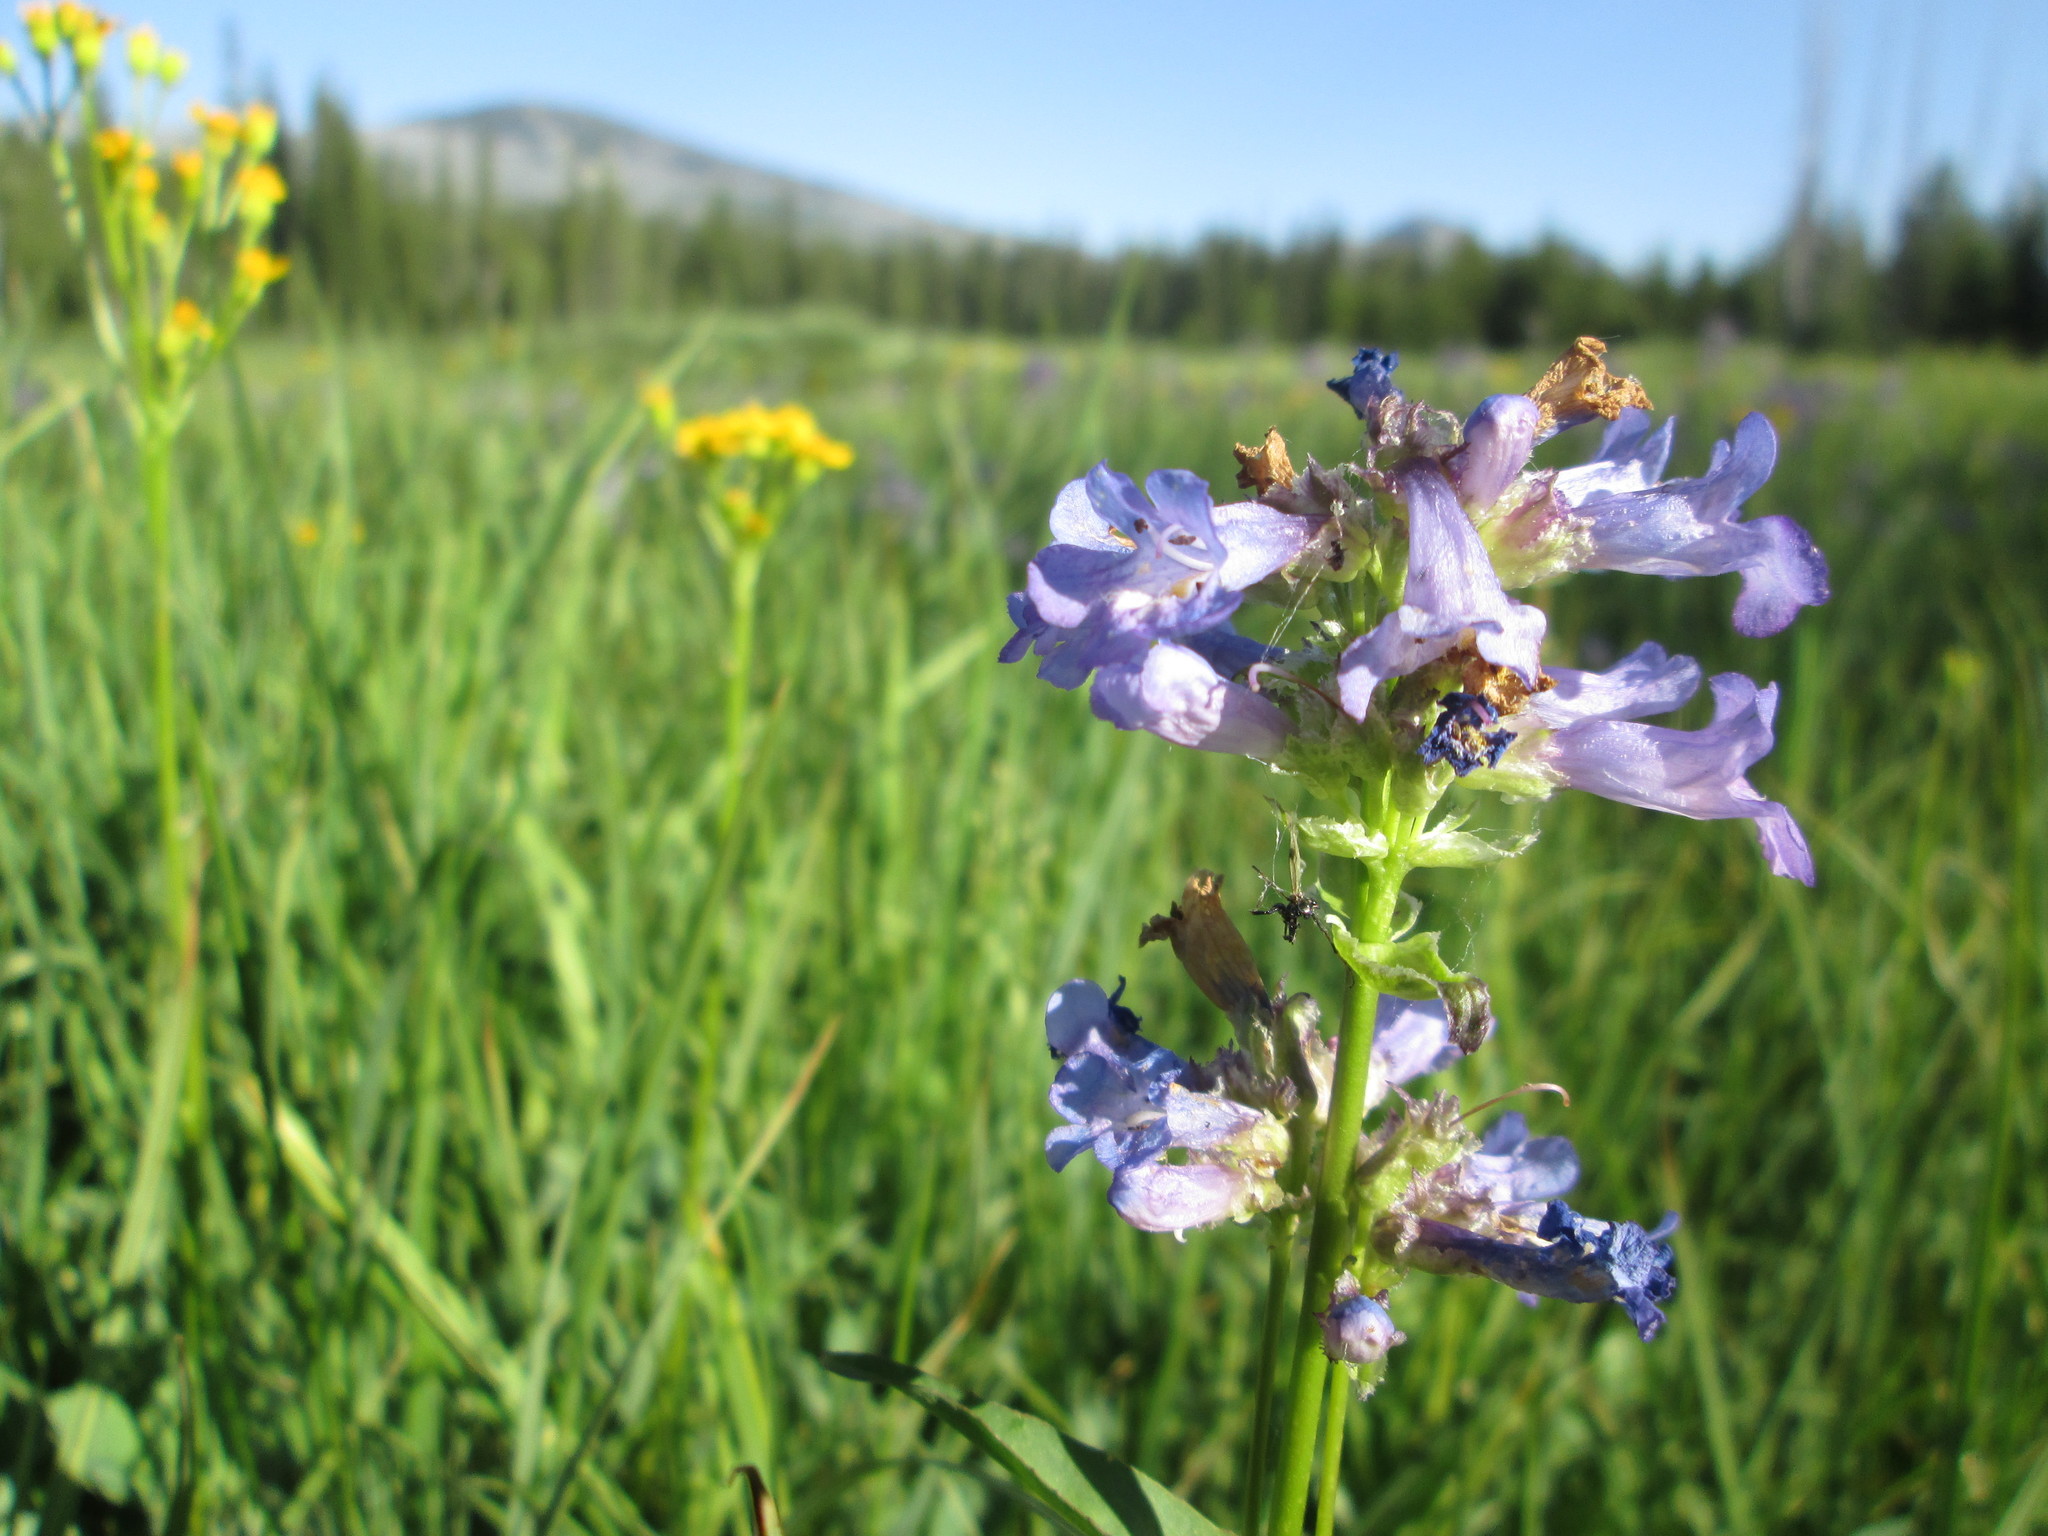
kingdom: Plantae
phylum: Tracheophyta
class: Magnoliopsida
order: Lamiales
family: Plantaginaceae
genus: Penstemon
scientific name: Penstemon globosus
